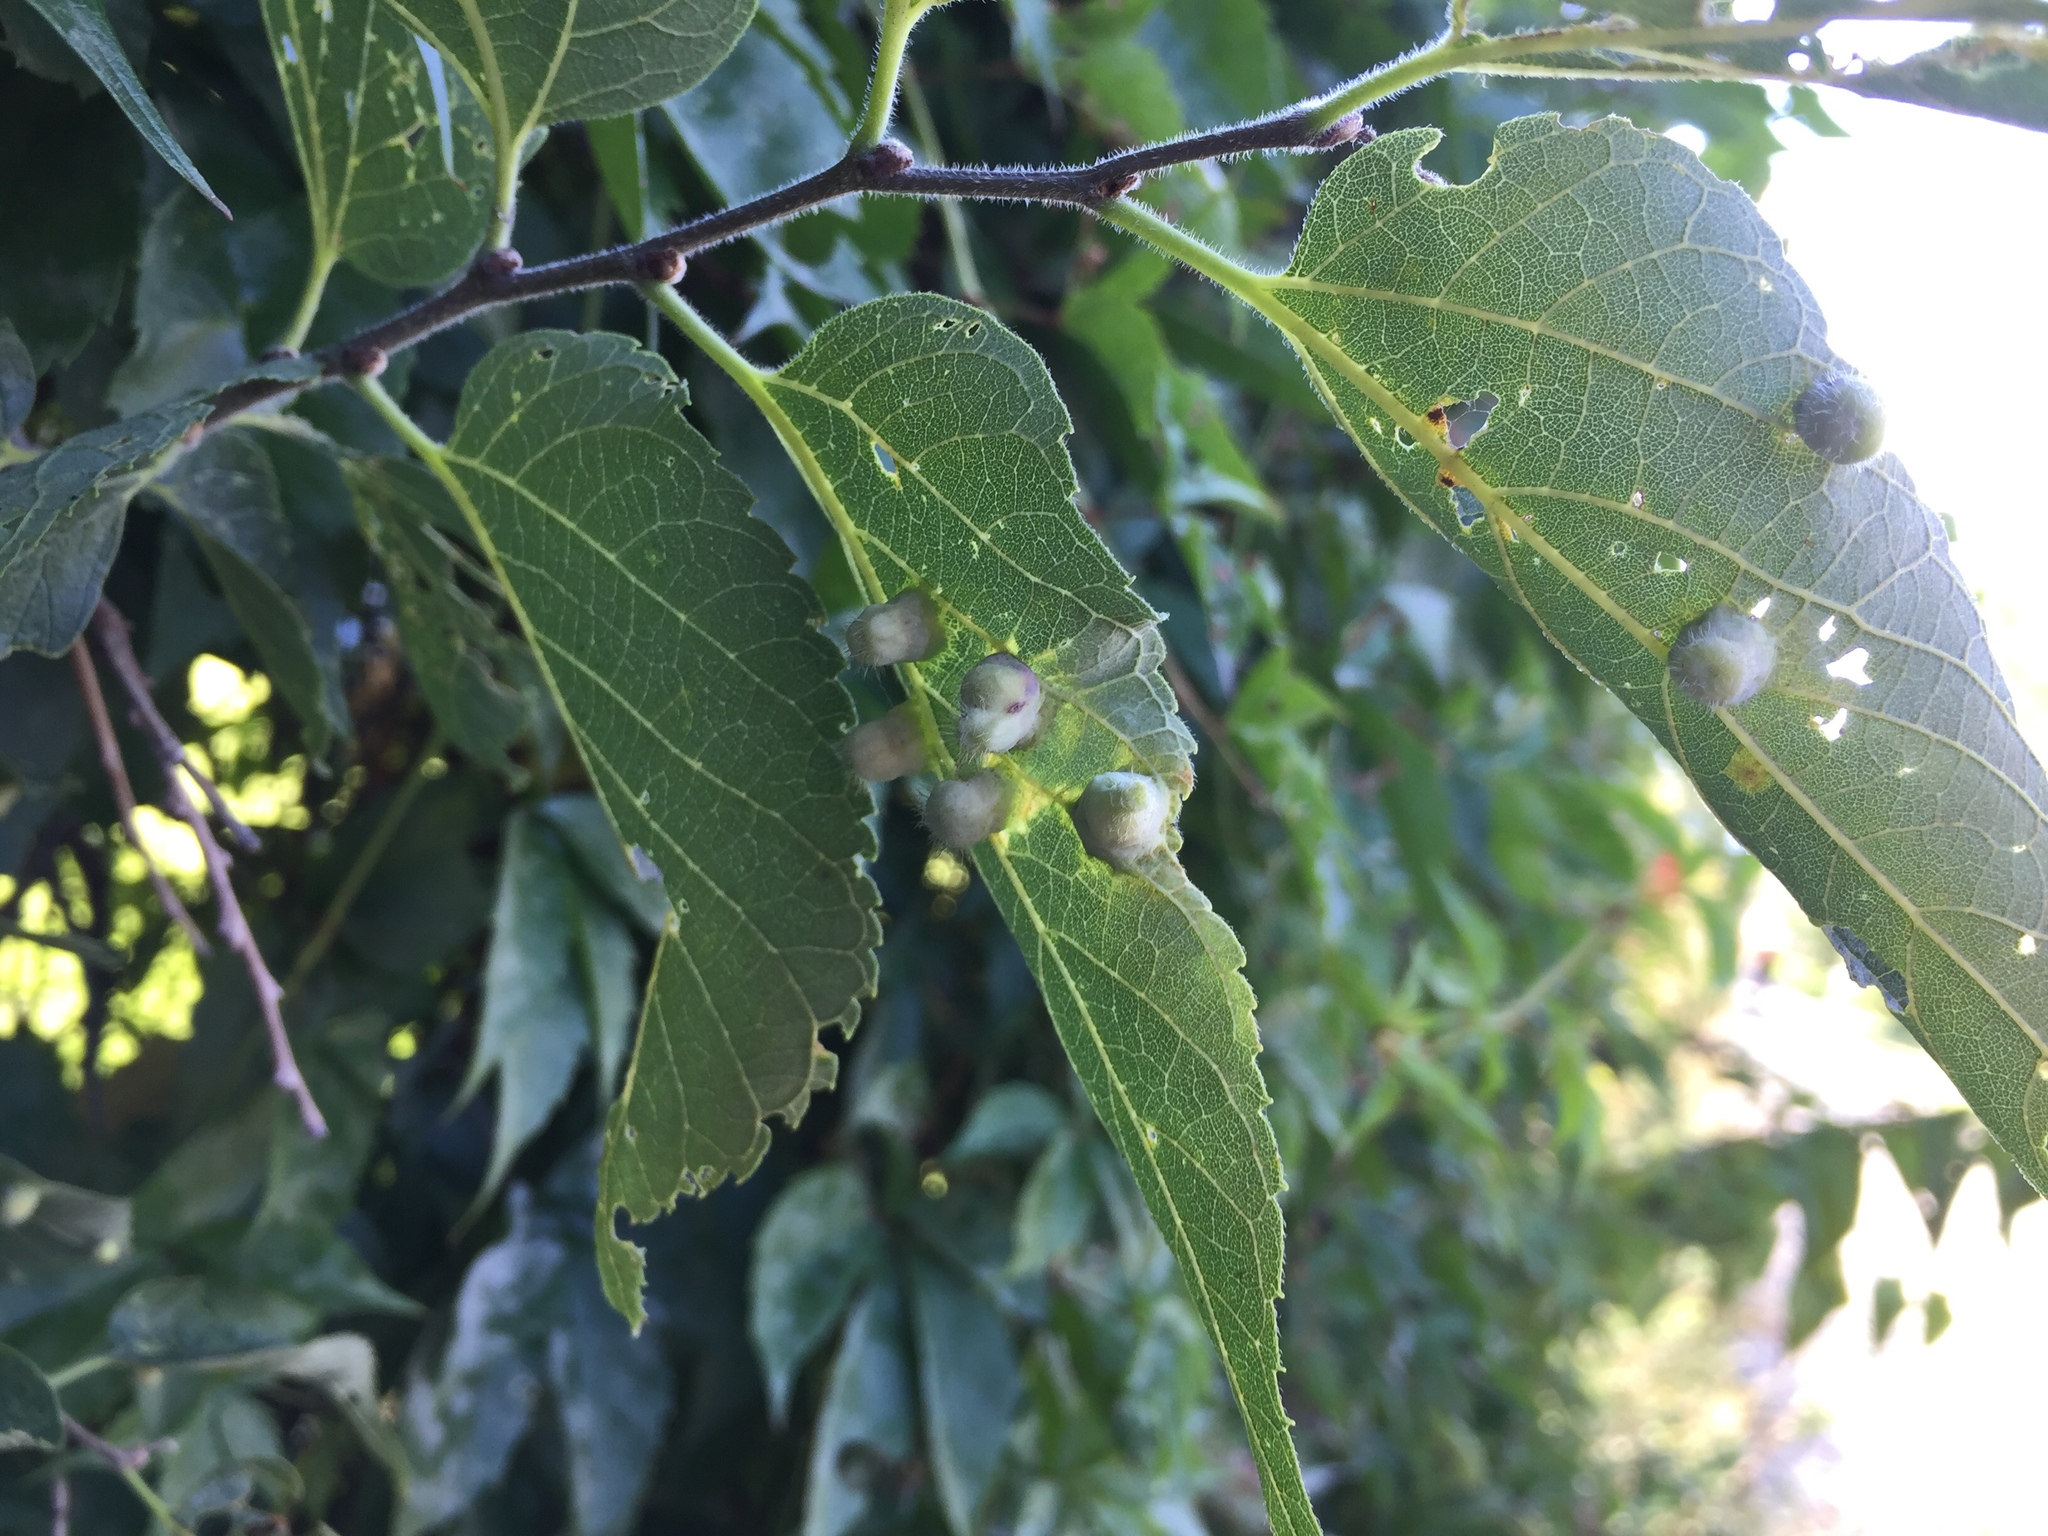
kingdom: Animalia
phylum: Arthropoda
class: Insecta
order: Hemiptera
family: Aphalaridae
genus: Pachypsylla
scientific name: Pachypsylla celtidismamma
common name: Hackberry nipplegall psyllid
